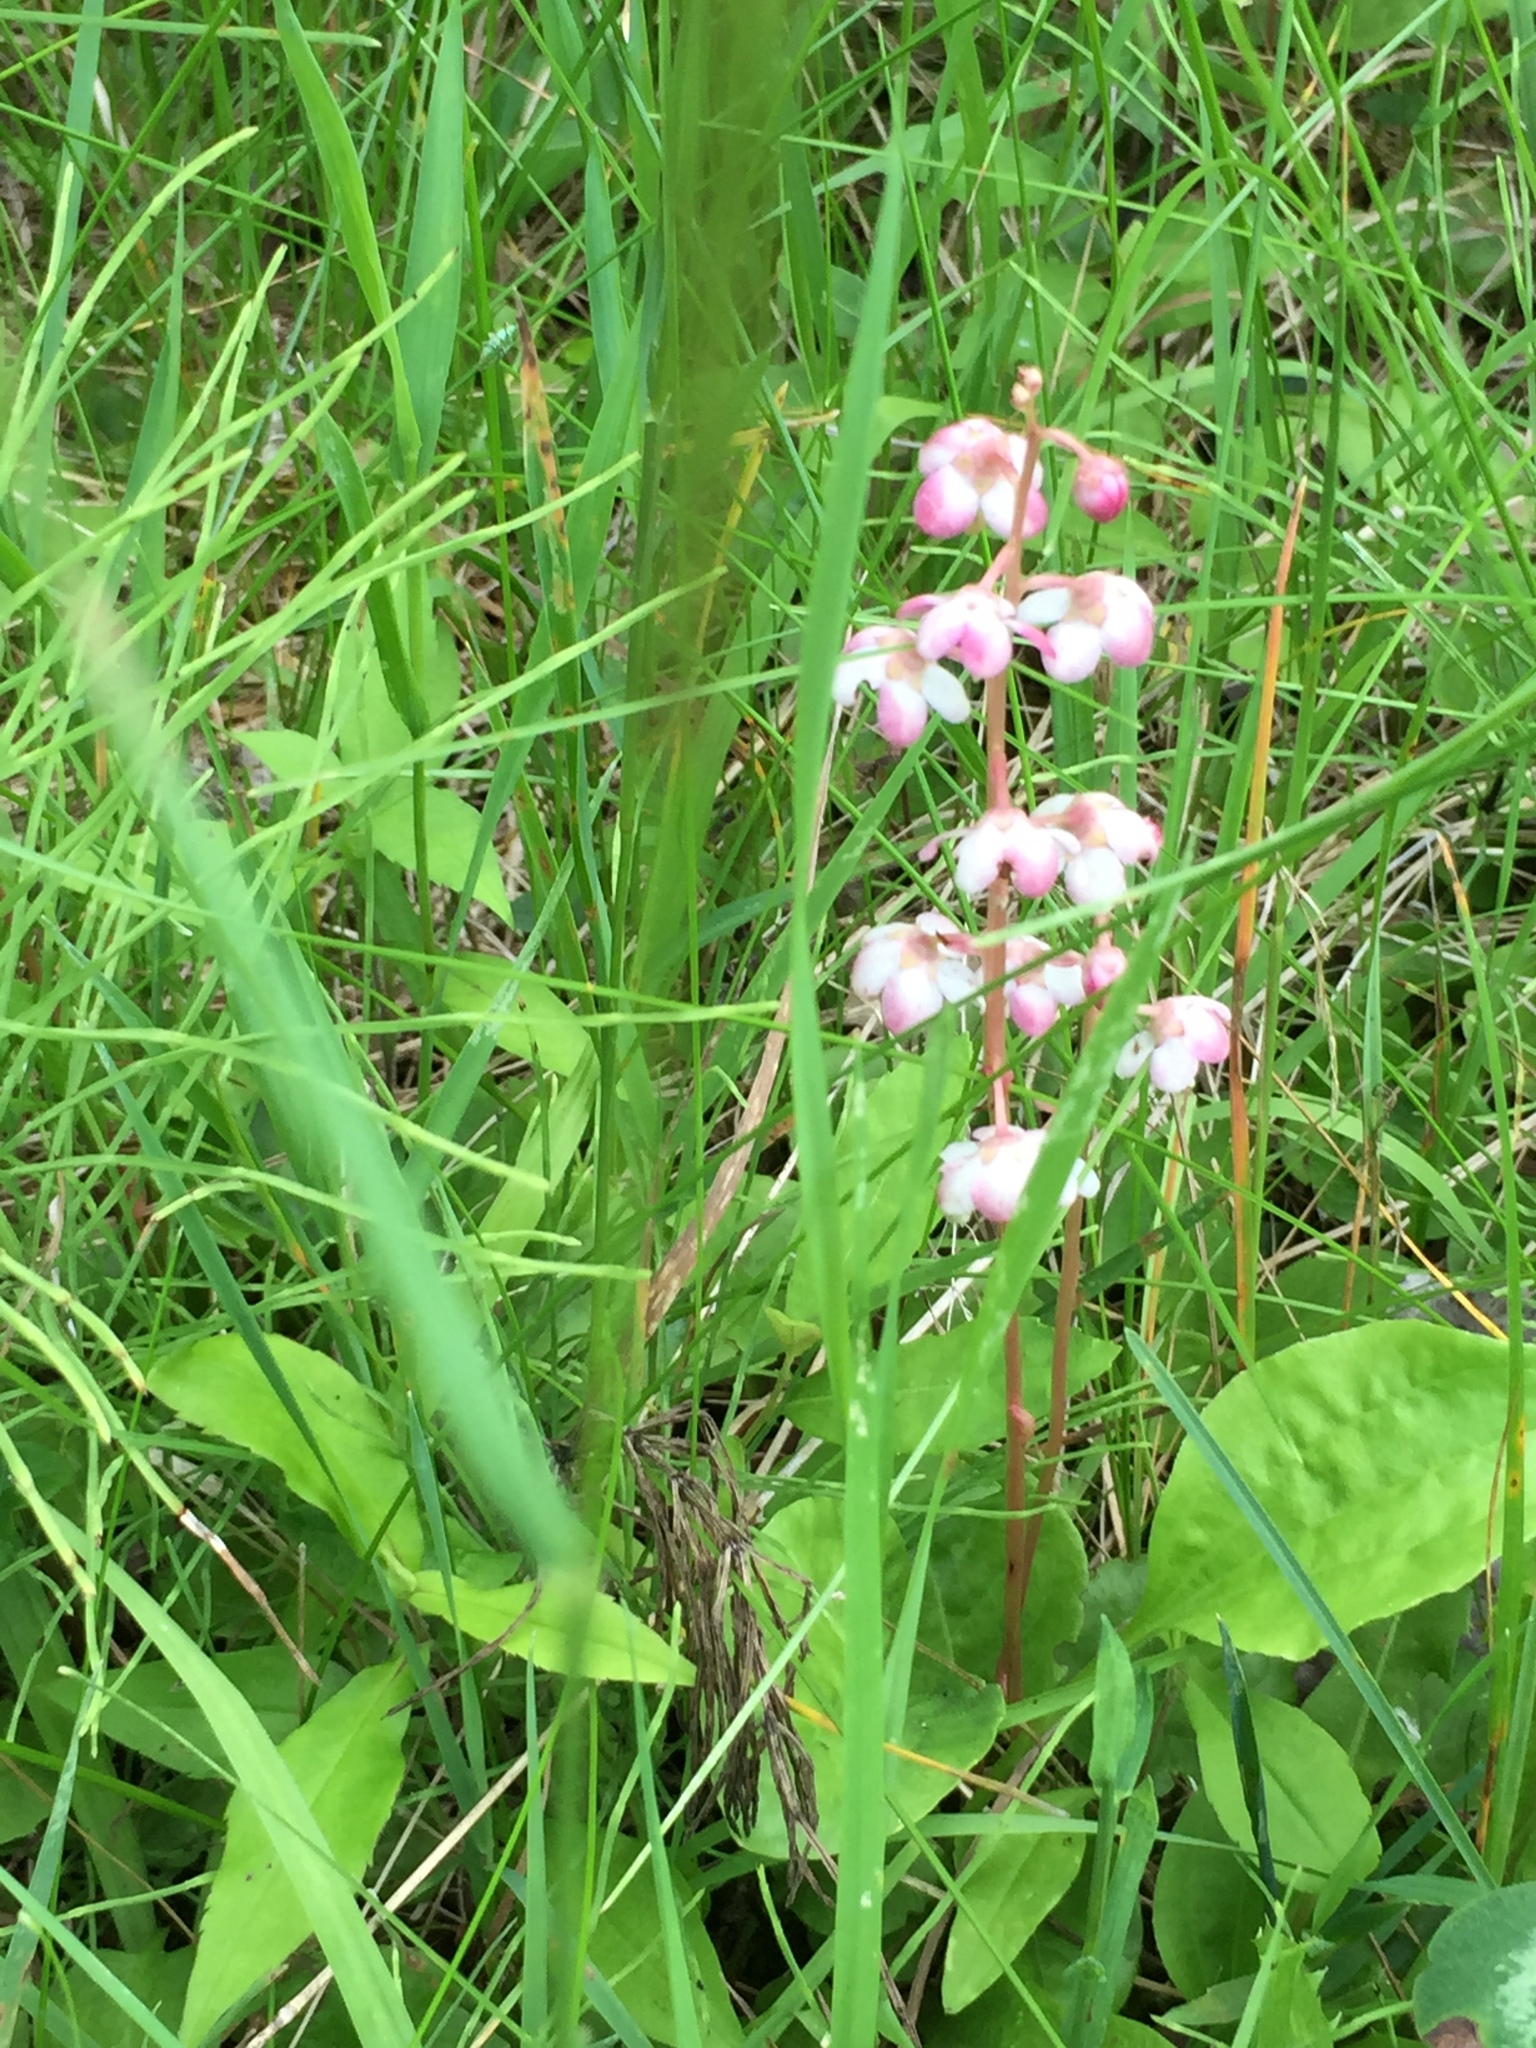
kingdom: Plantae
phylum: Tracheophyta
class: Magnoliopsida
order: Ericales
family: Ericaceae
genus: Pyrola
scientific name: Pyrola asarifolia
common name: Bog wintergreen
